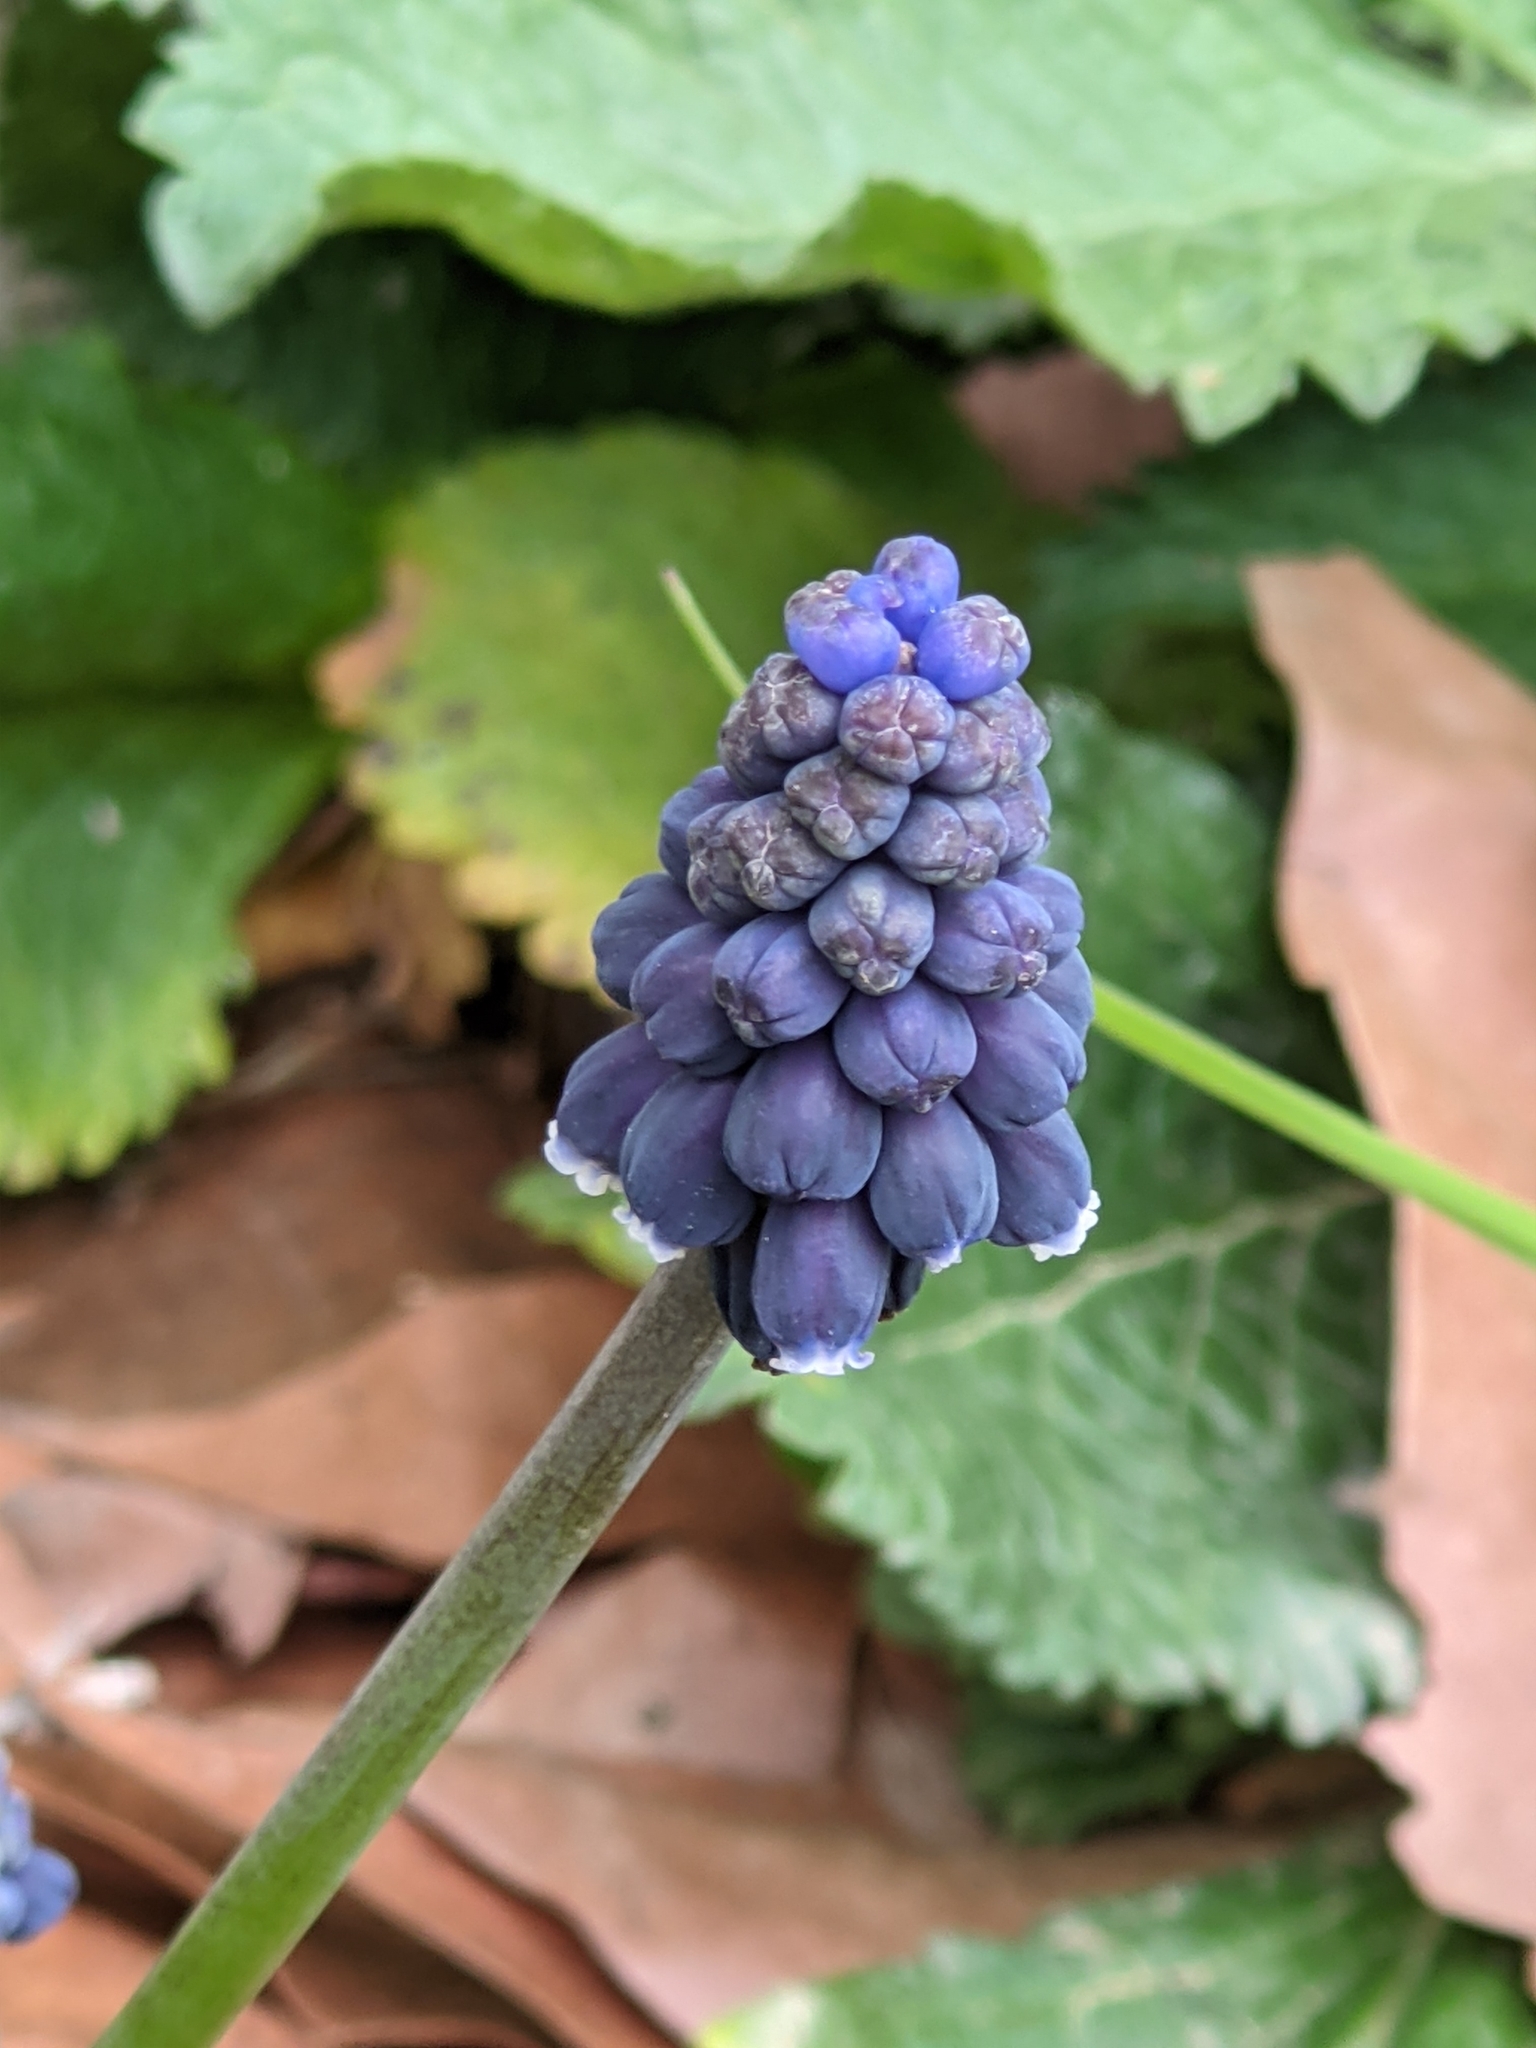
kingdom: Plantae
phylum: Tracheophyta
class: Liliopsida
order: Asparagales
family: Asparagaceae
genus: Muscari
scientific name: Muscari neglectum
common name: Grape-hyacinth
